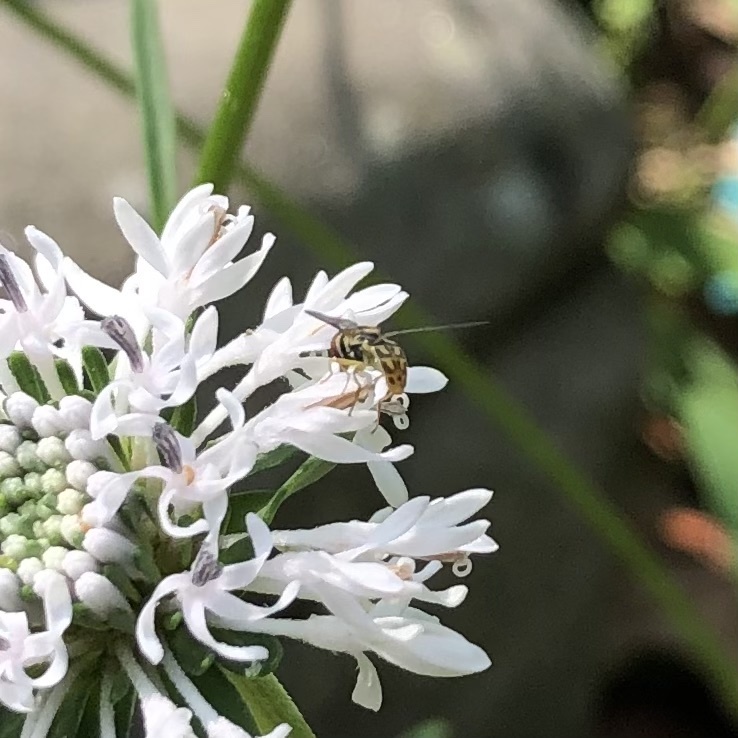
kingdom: Animalia
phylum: Arthropoda
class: Insecta
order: Diptera
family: Syrphidae
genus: Toxomerus
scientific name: Toxomerus marginatus
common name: Syrphid fly
